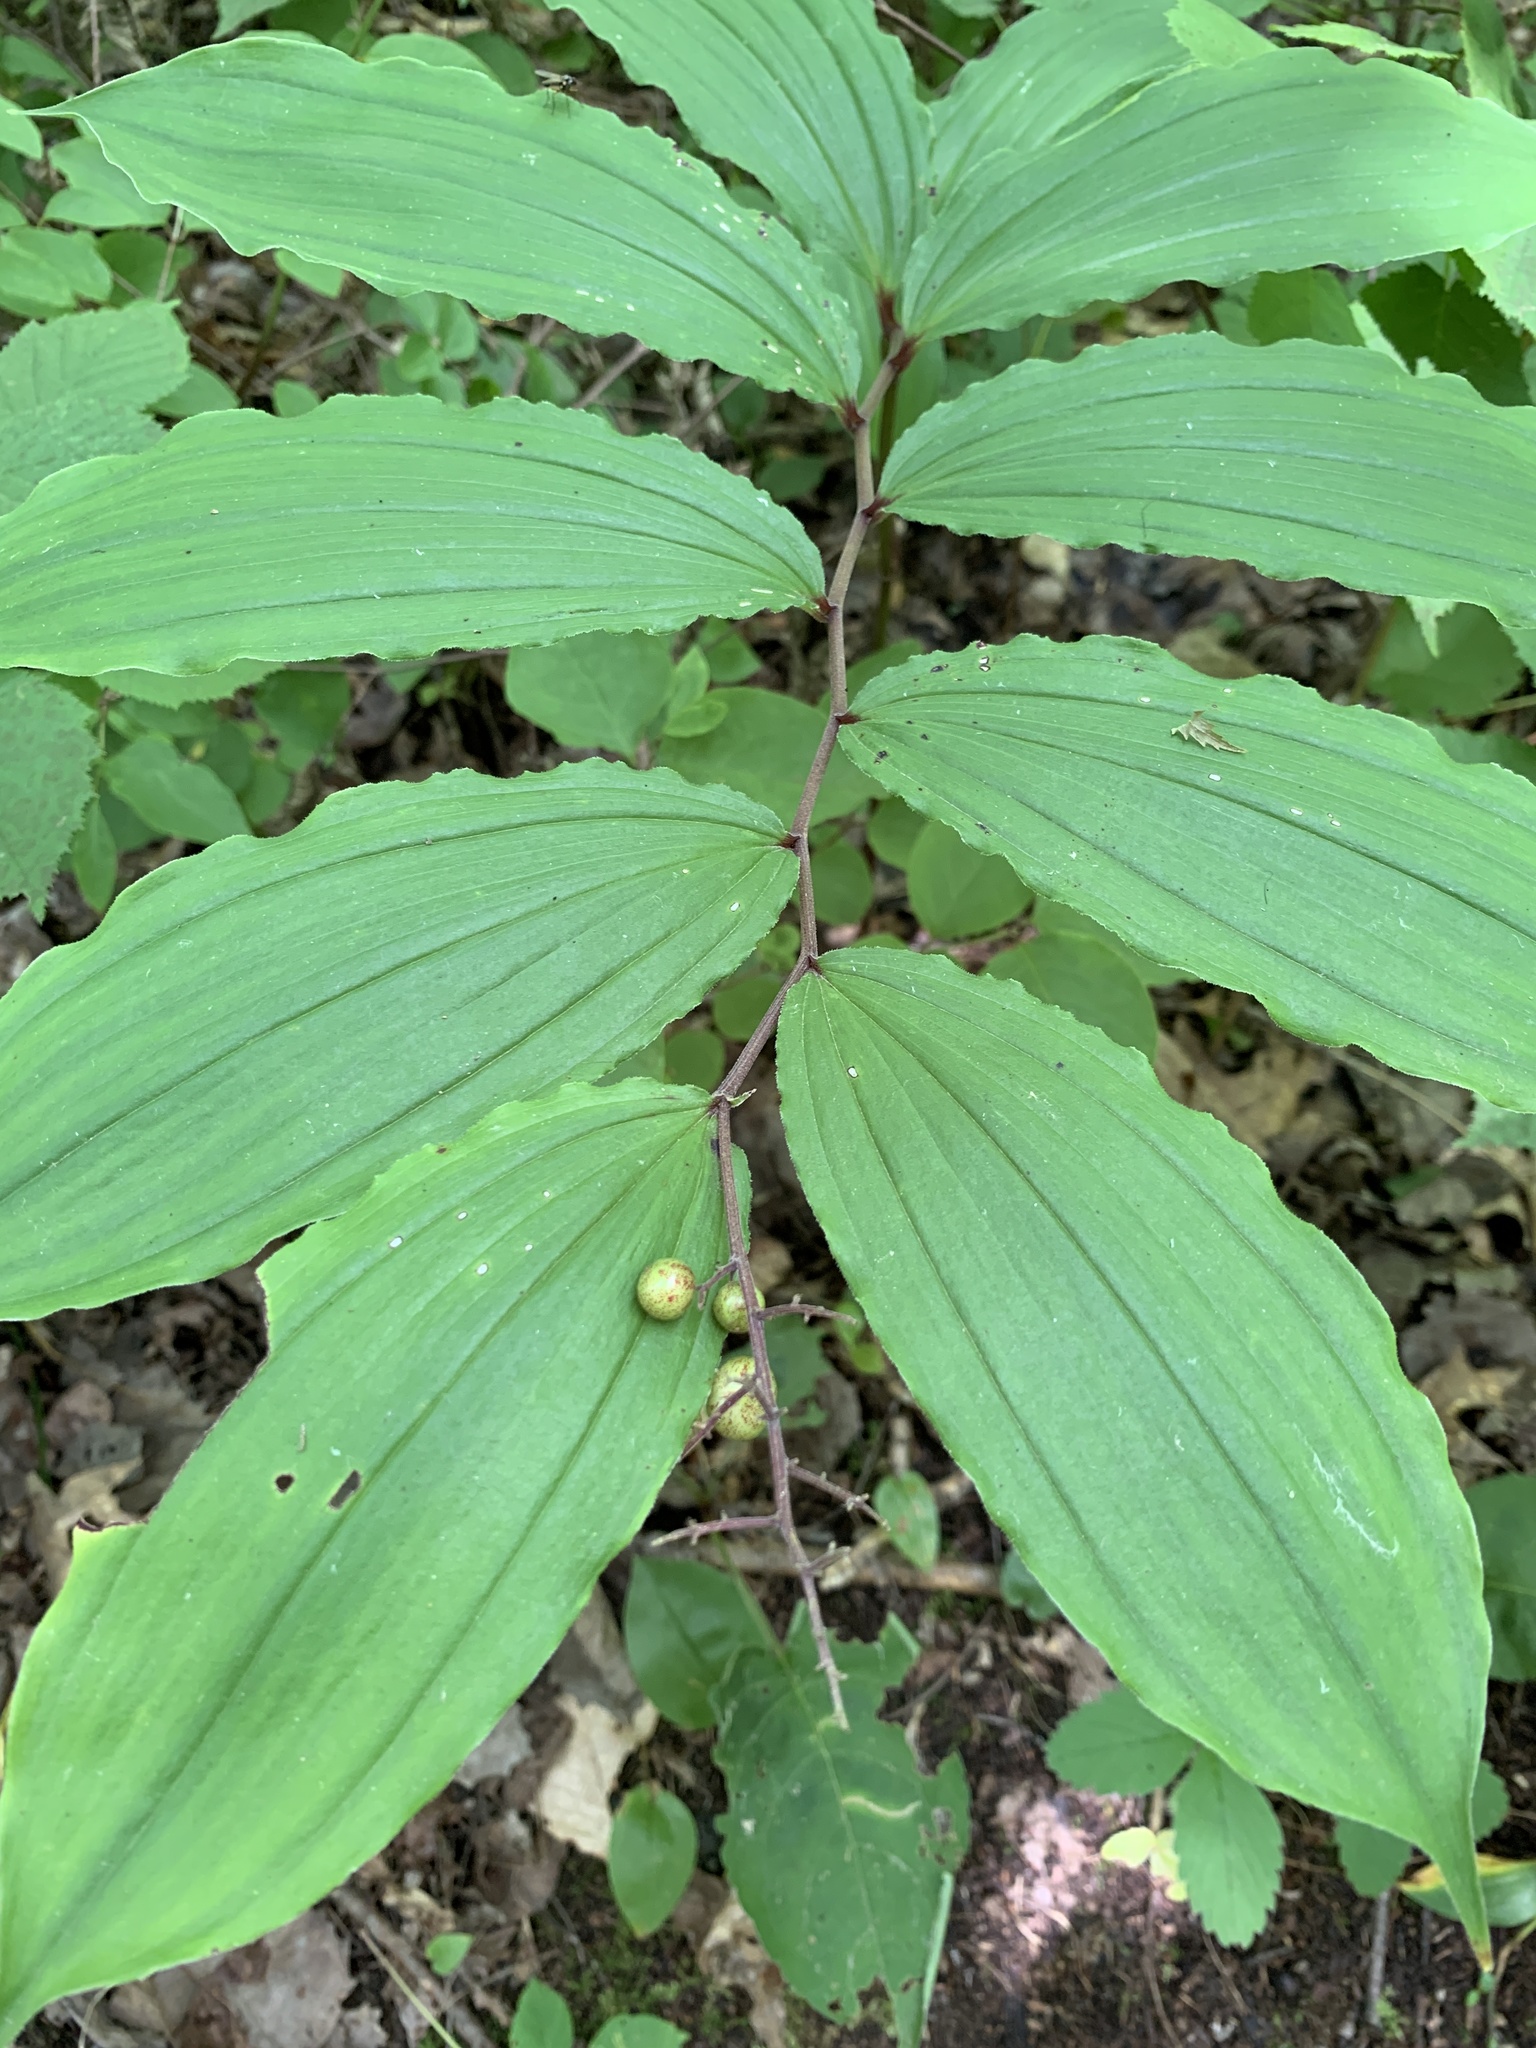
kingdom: Plantae
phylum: Tracheophyta
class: Liliopsida
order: Asparagales
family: Asparagaceae
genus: Maianthemum
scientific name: Maianthemum racemosum
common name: False spikenard
